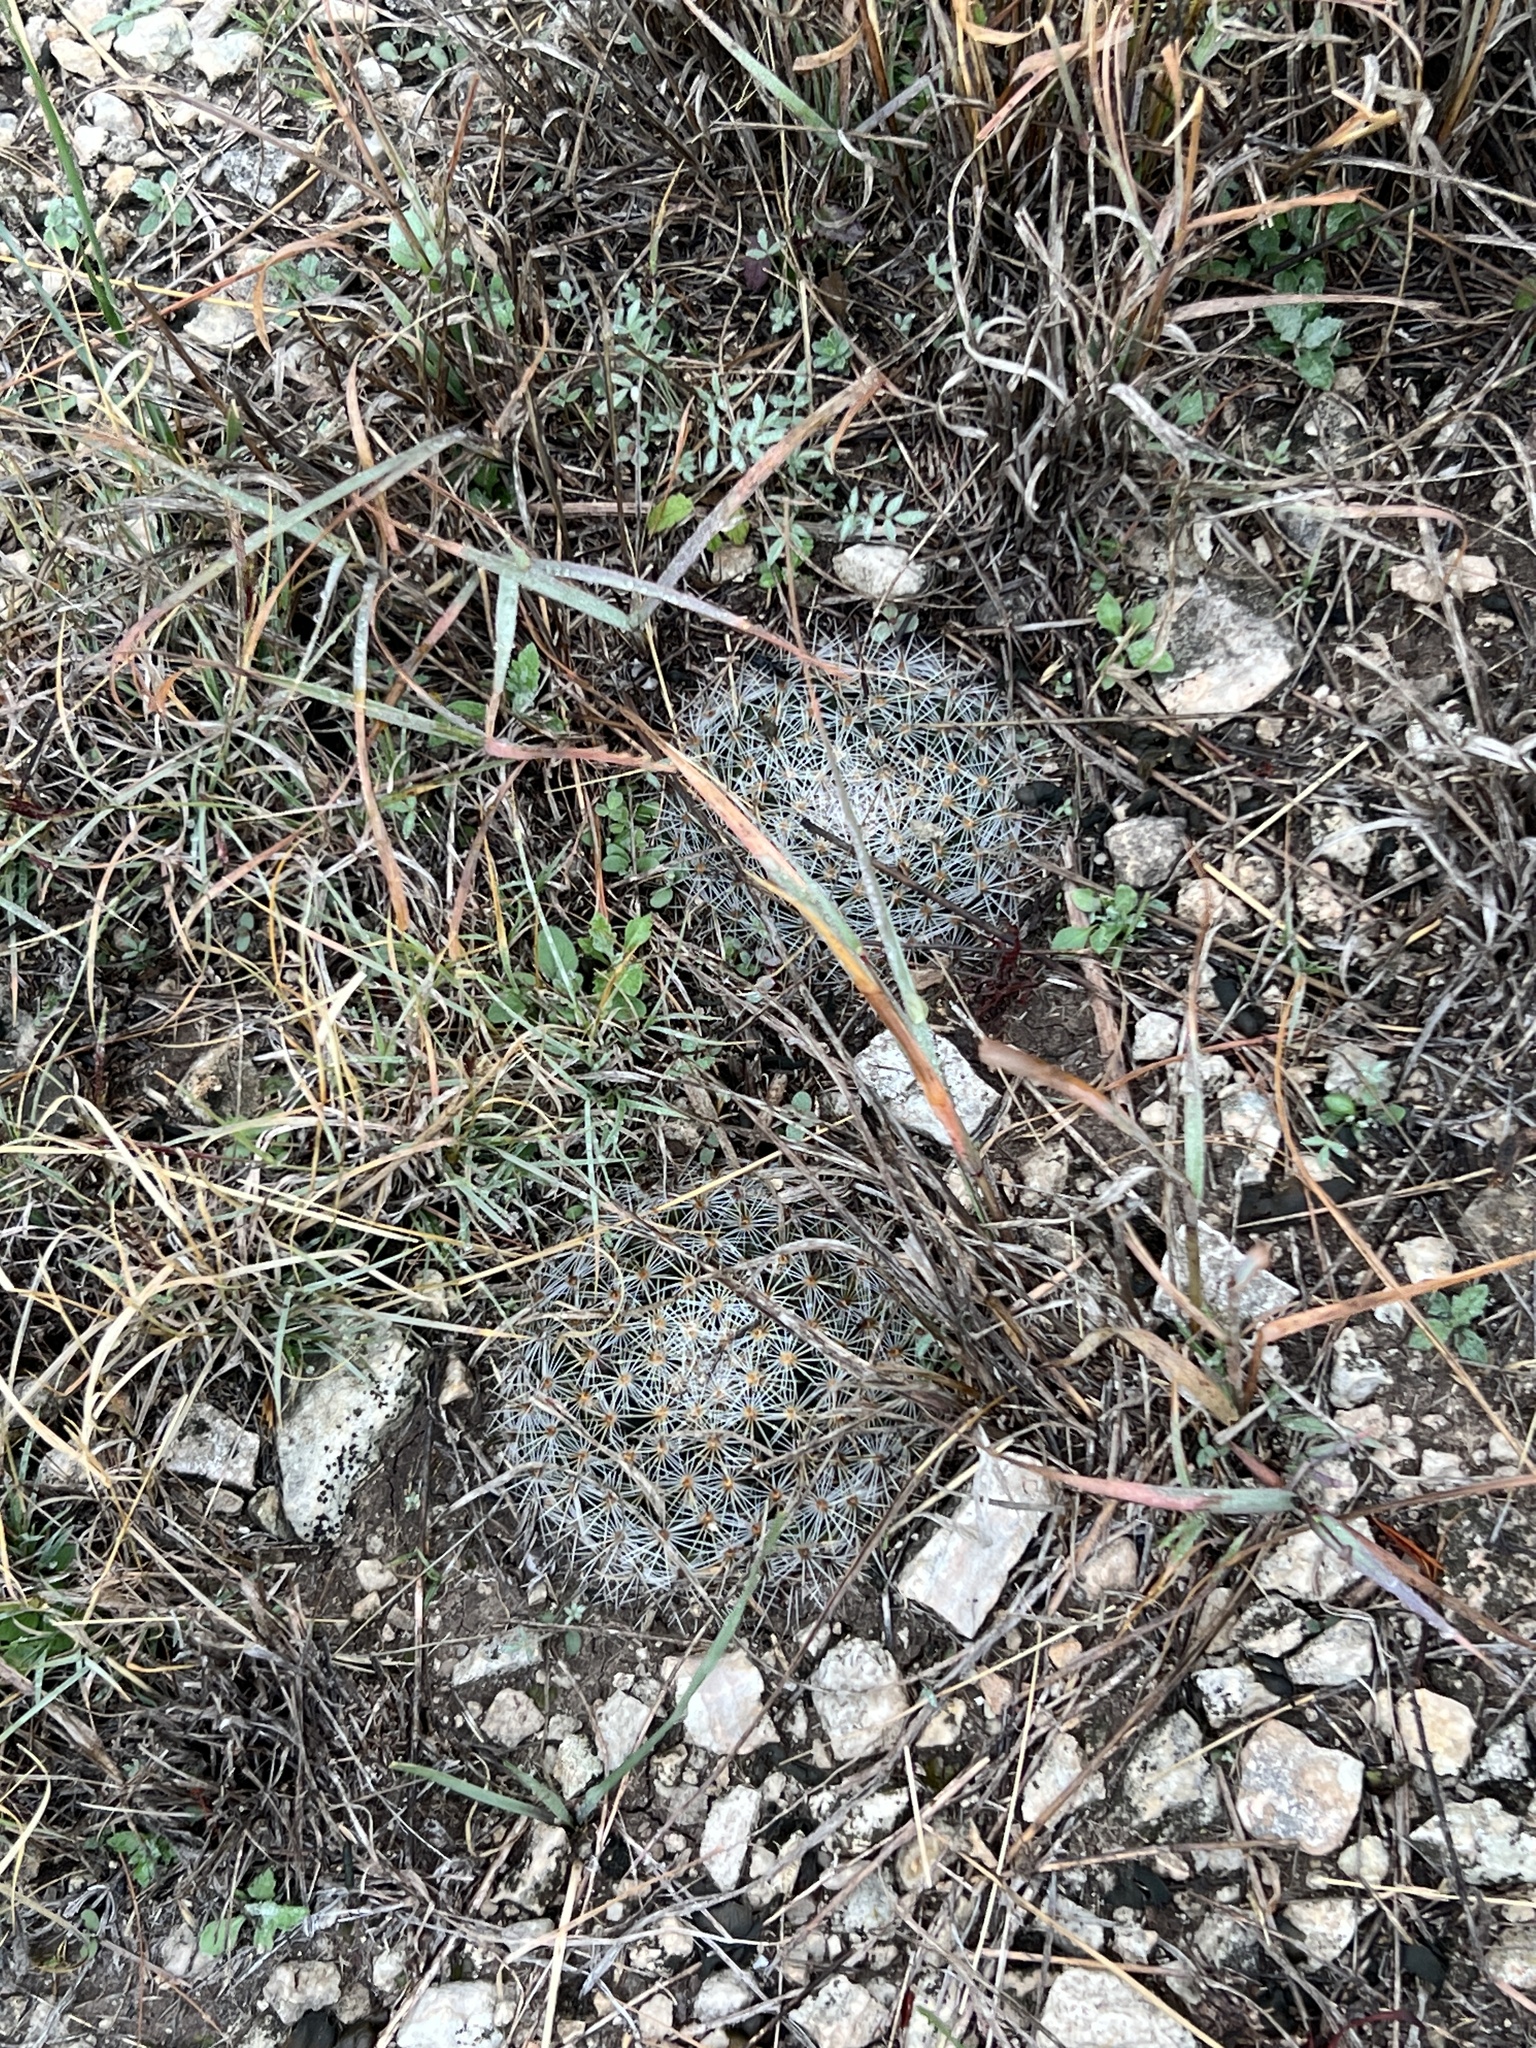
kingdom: Plantae
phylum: Tracheophyta
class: Magnoliopsida
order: Caryophyllales
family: Cactaceae
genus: Mammillaria
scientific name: Mammillaria heyderi
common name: Little nipple cactus
